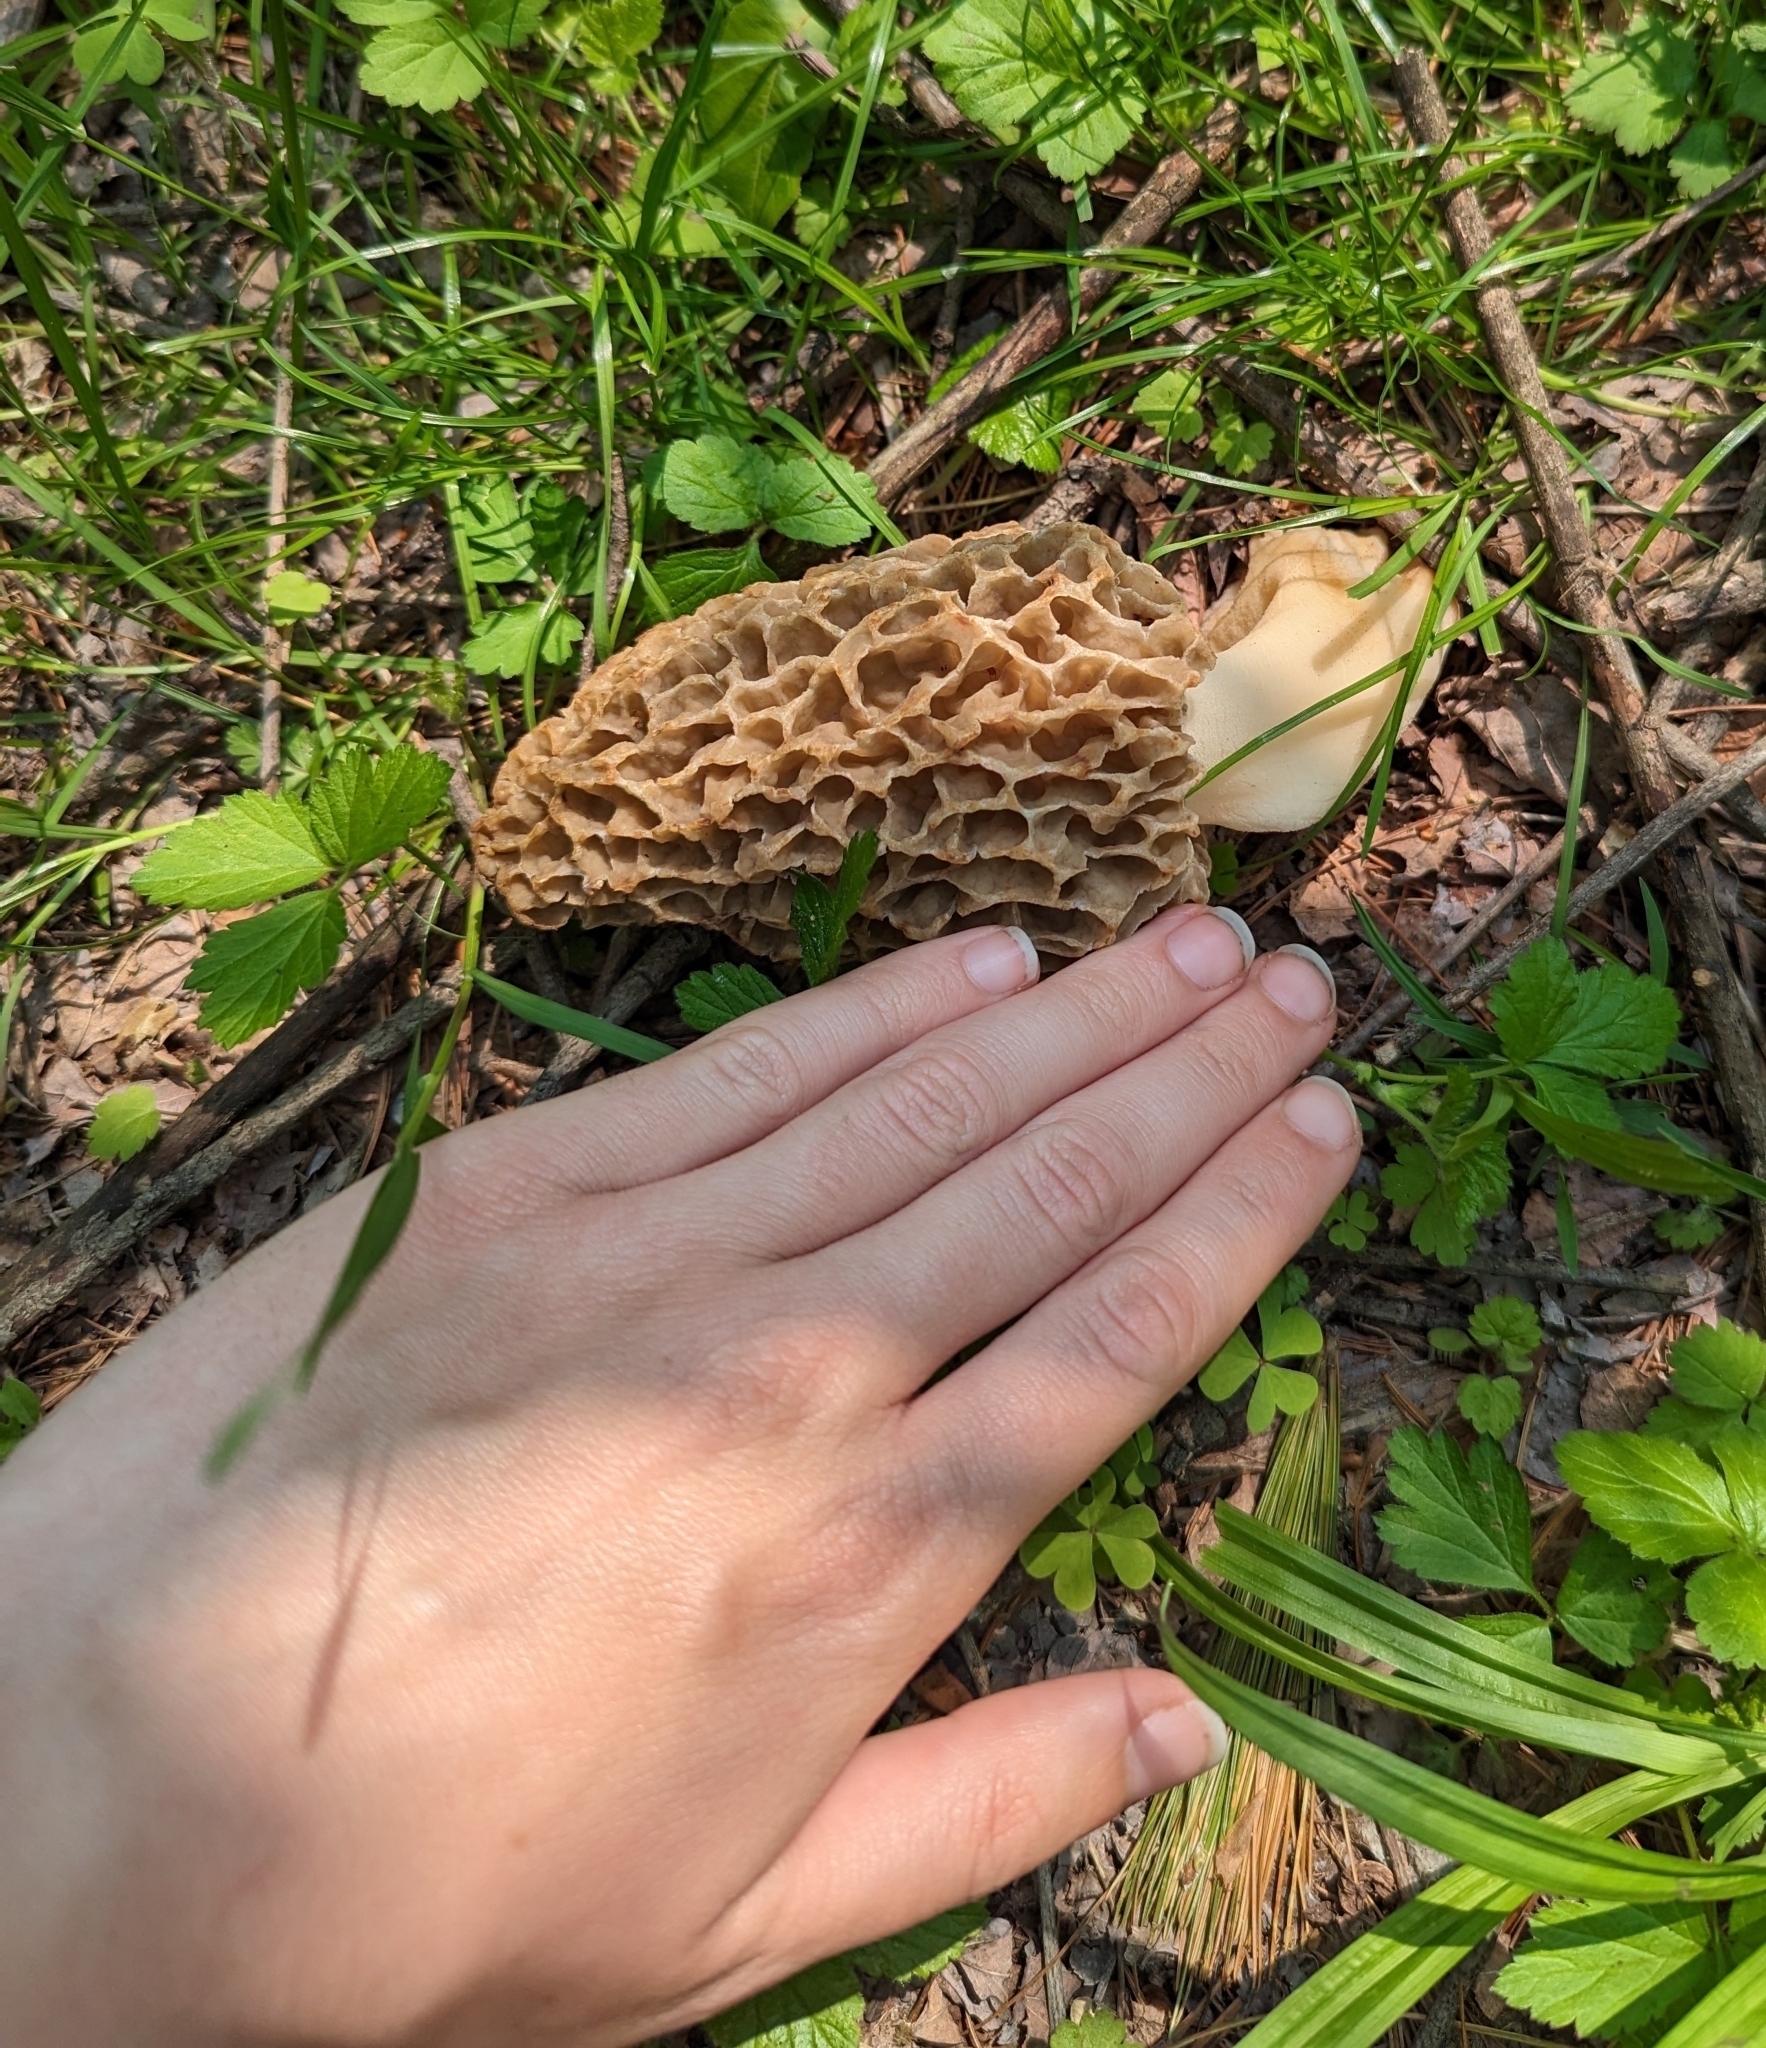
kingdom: Fungi
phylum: Ascomycota
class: Pezizomycetes
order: Pezizales
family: Morchellaceae
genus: Morchella
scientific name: Morchella americana
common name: White morel
